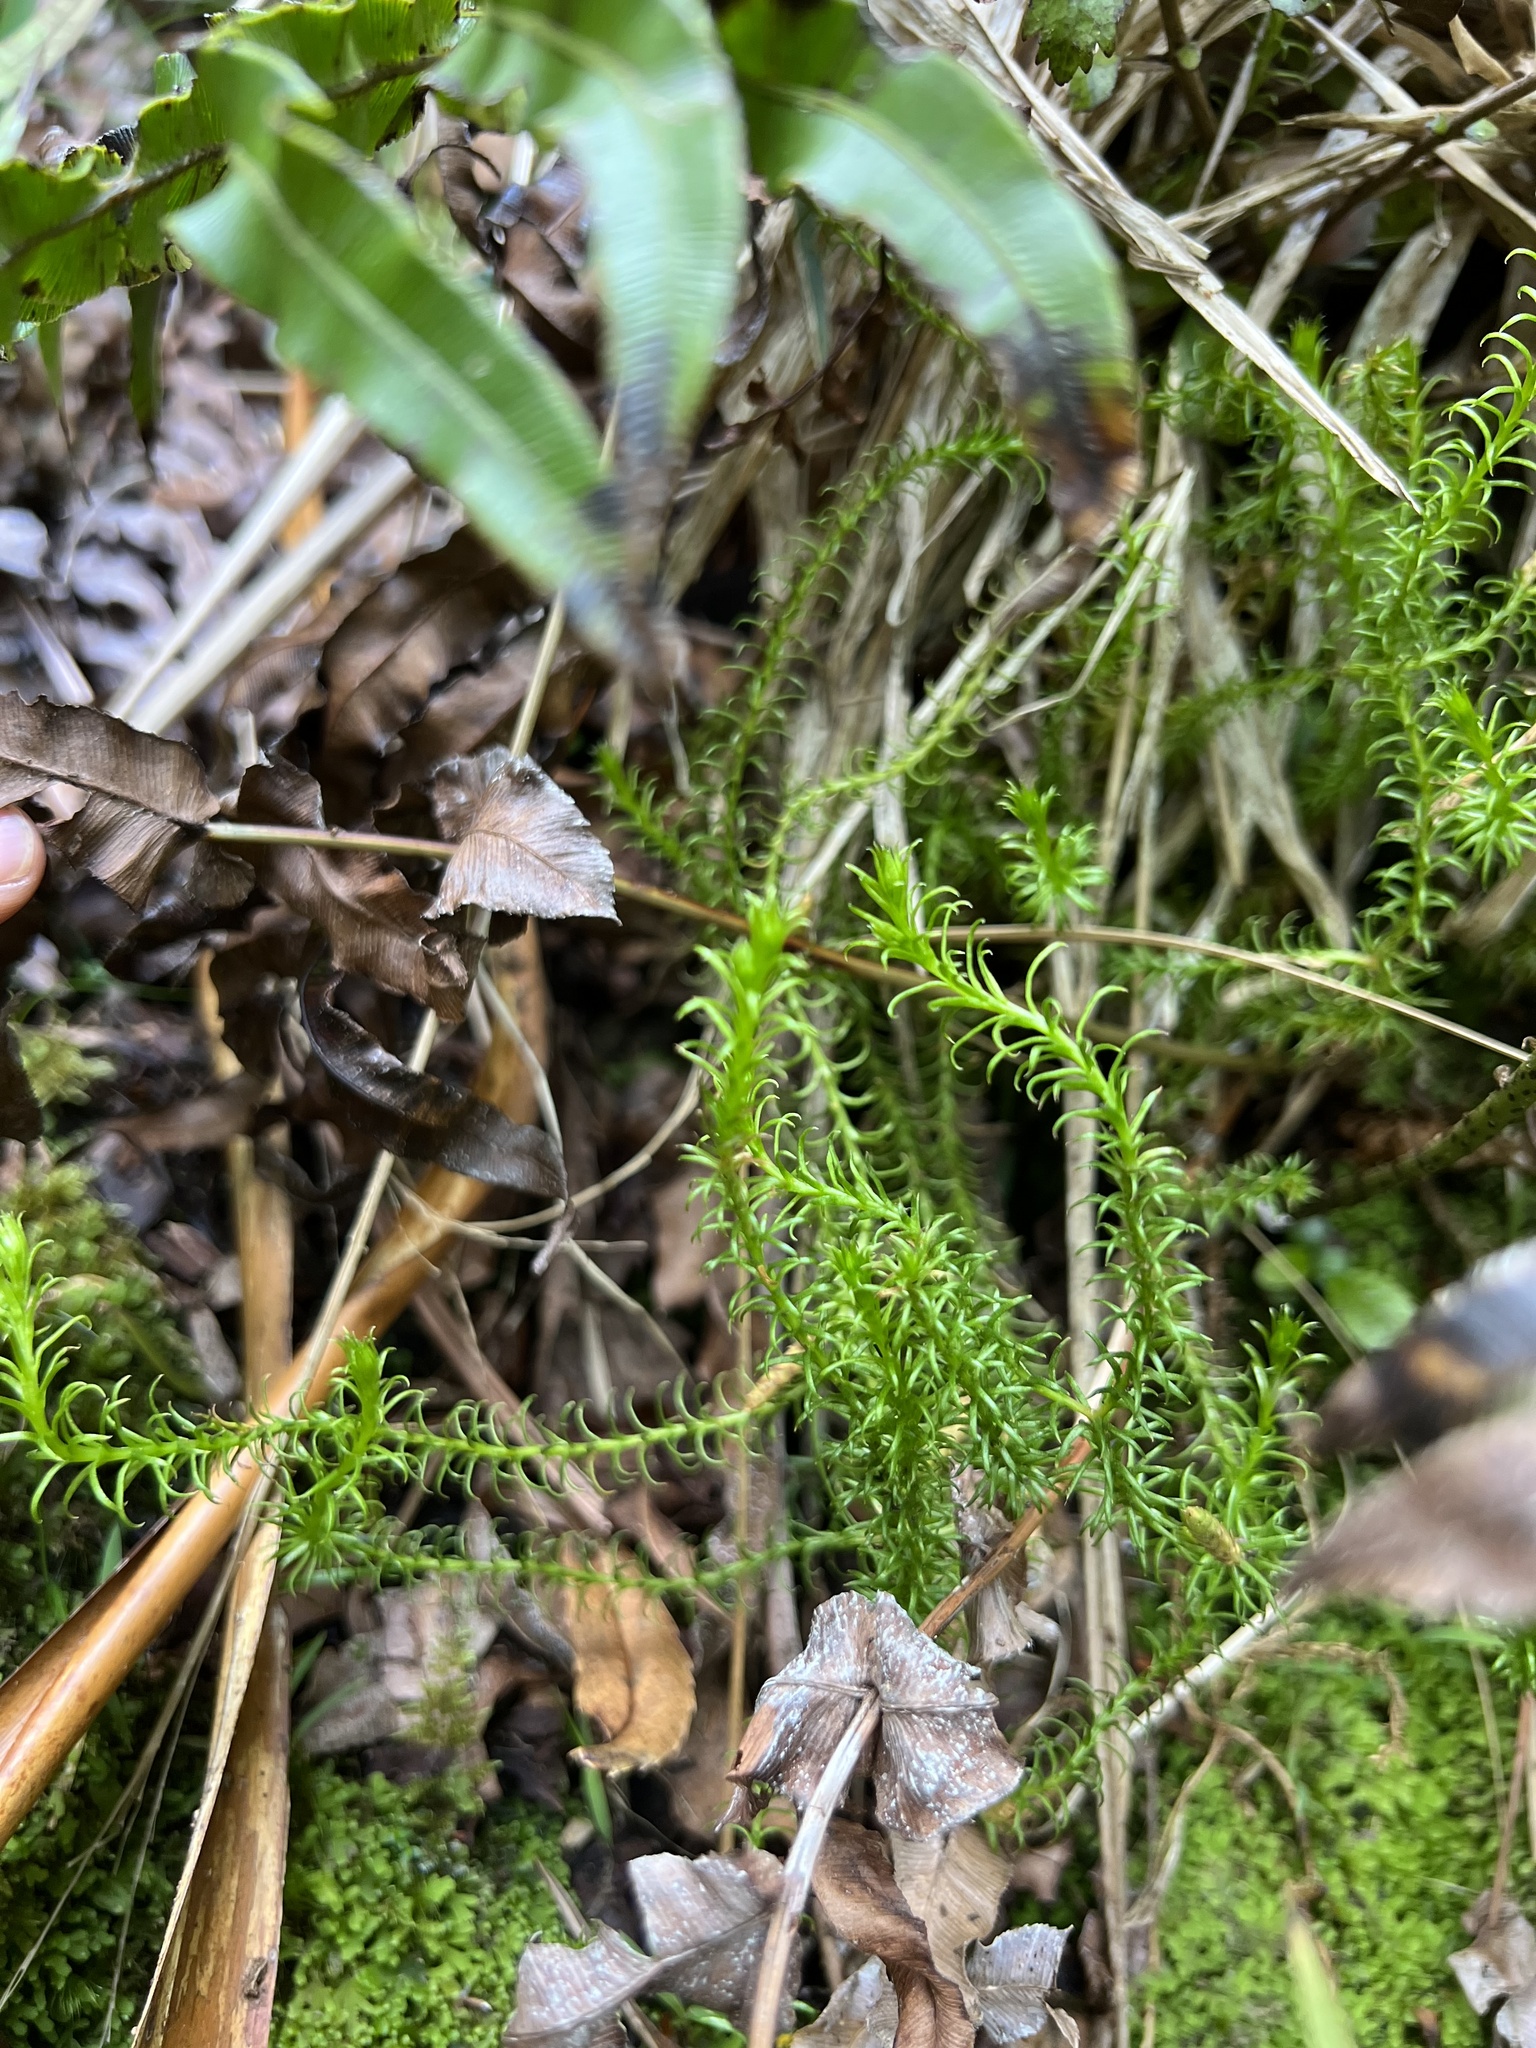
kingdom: Plantae
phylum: Tracheophyta
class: Lycopodiopsida
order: Lycopodiales
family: Lycopodiaceae
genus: Lateristachys
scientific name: Lateristachys lateralis
